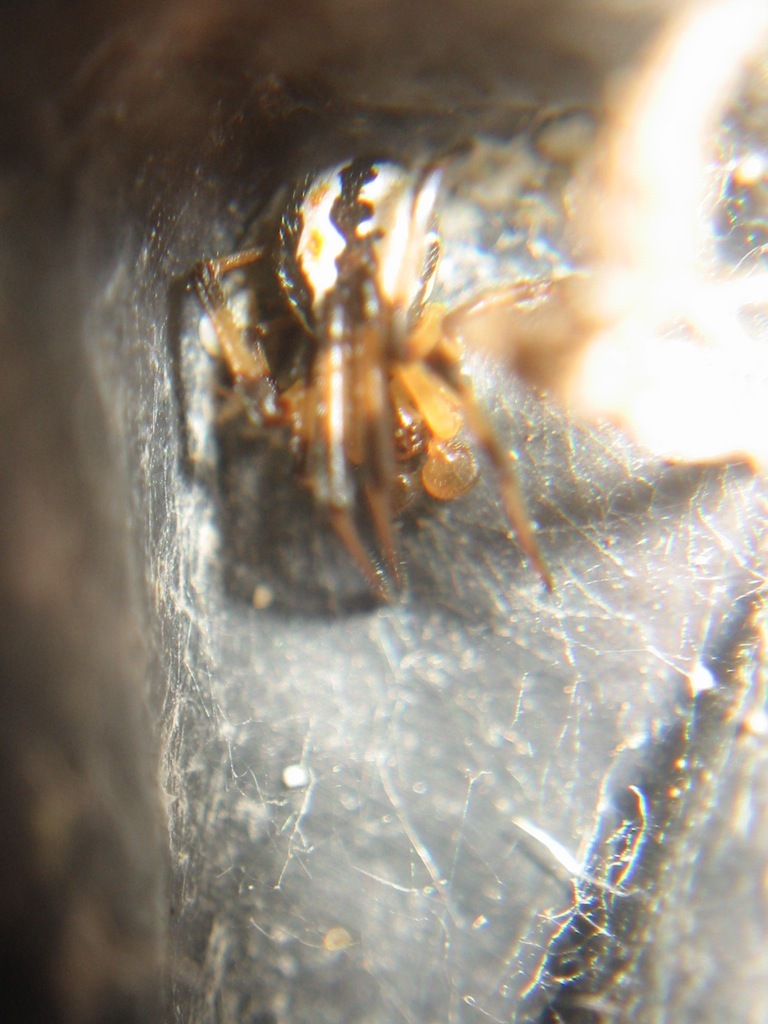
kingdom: Animalia
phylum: Arthropoda
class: Arachnida
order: Araneae
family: Theridiidae
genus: Latrodectus
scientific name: Latrodectus katipo
